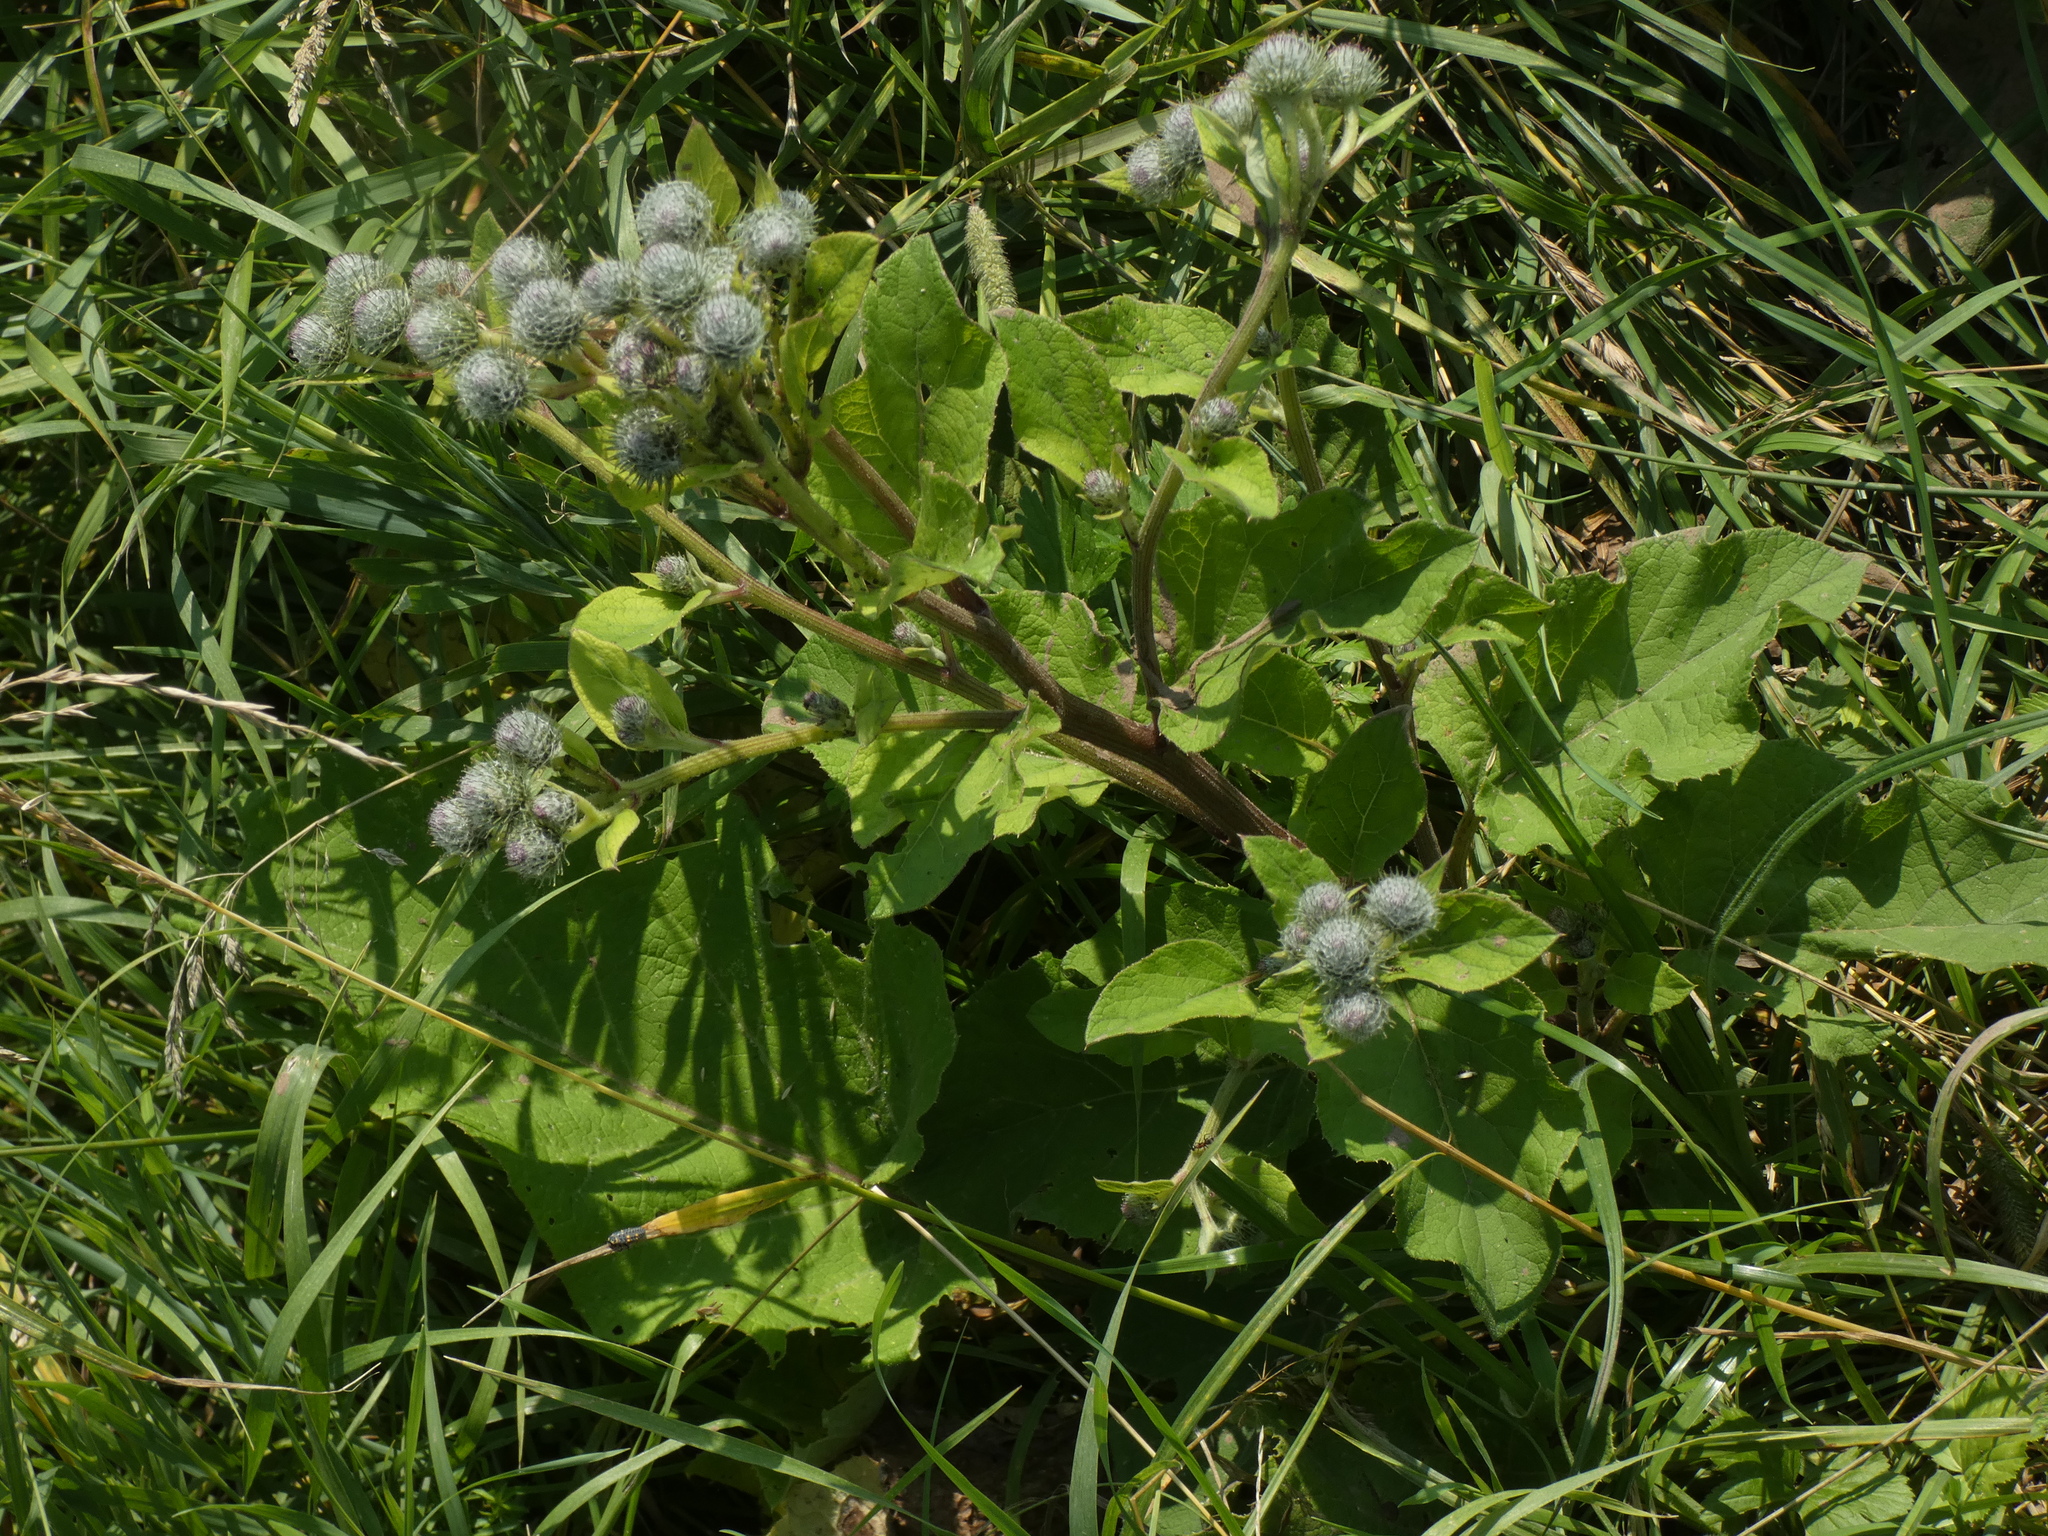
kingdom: Plantae
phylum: Tracheophyta
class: Magnoliopsida
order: Asterales
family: Asteraceae
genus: Arctium
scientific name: Arctium tomentosum
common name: Woolly burdock
